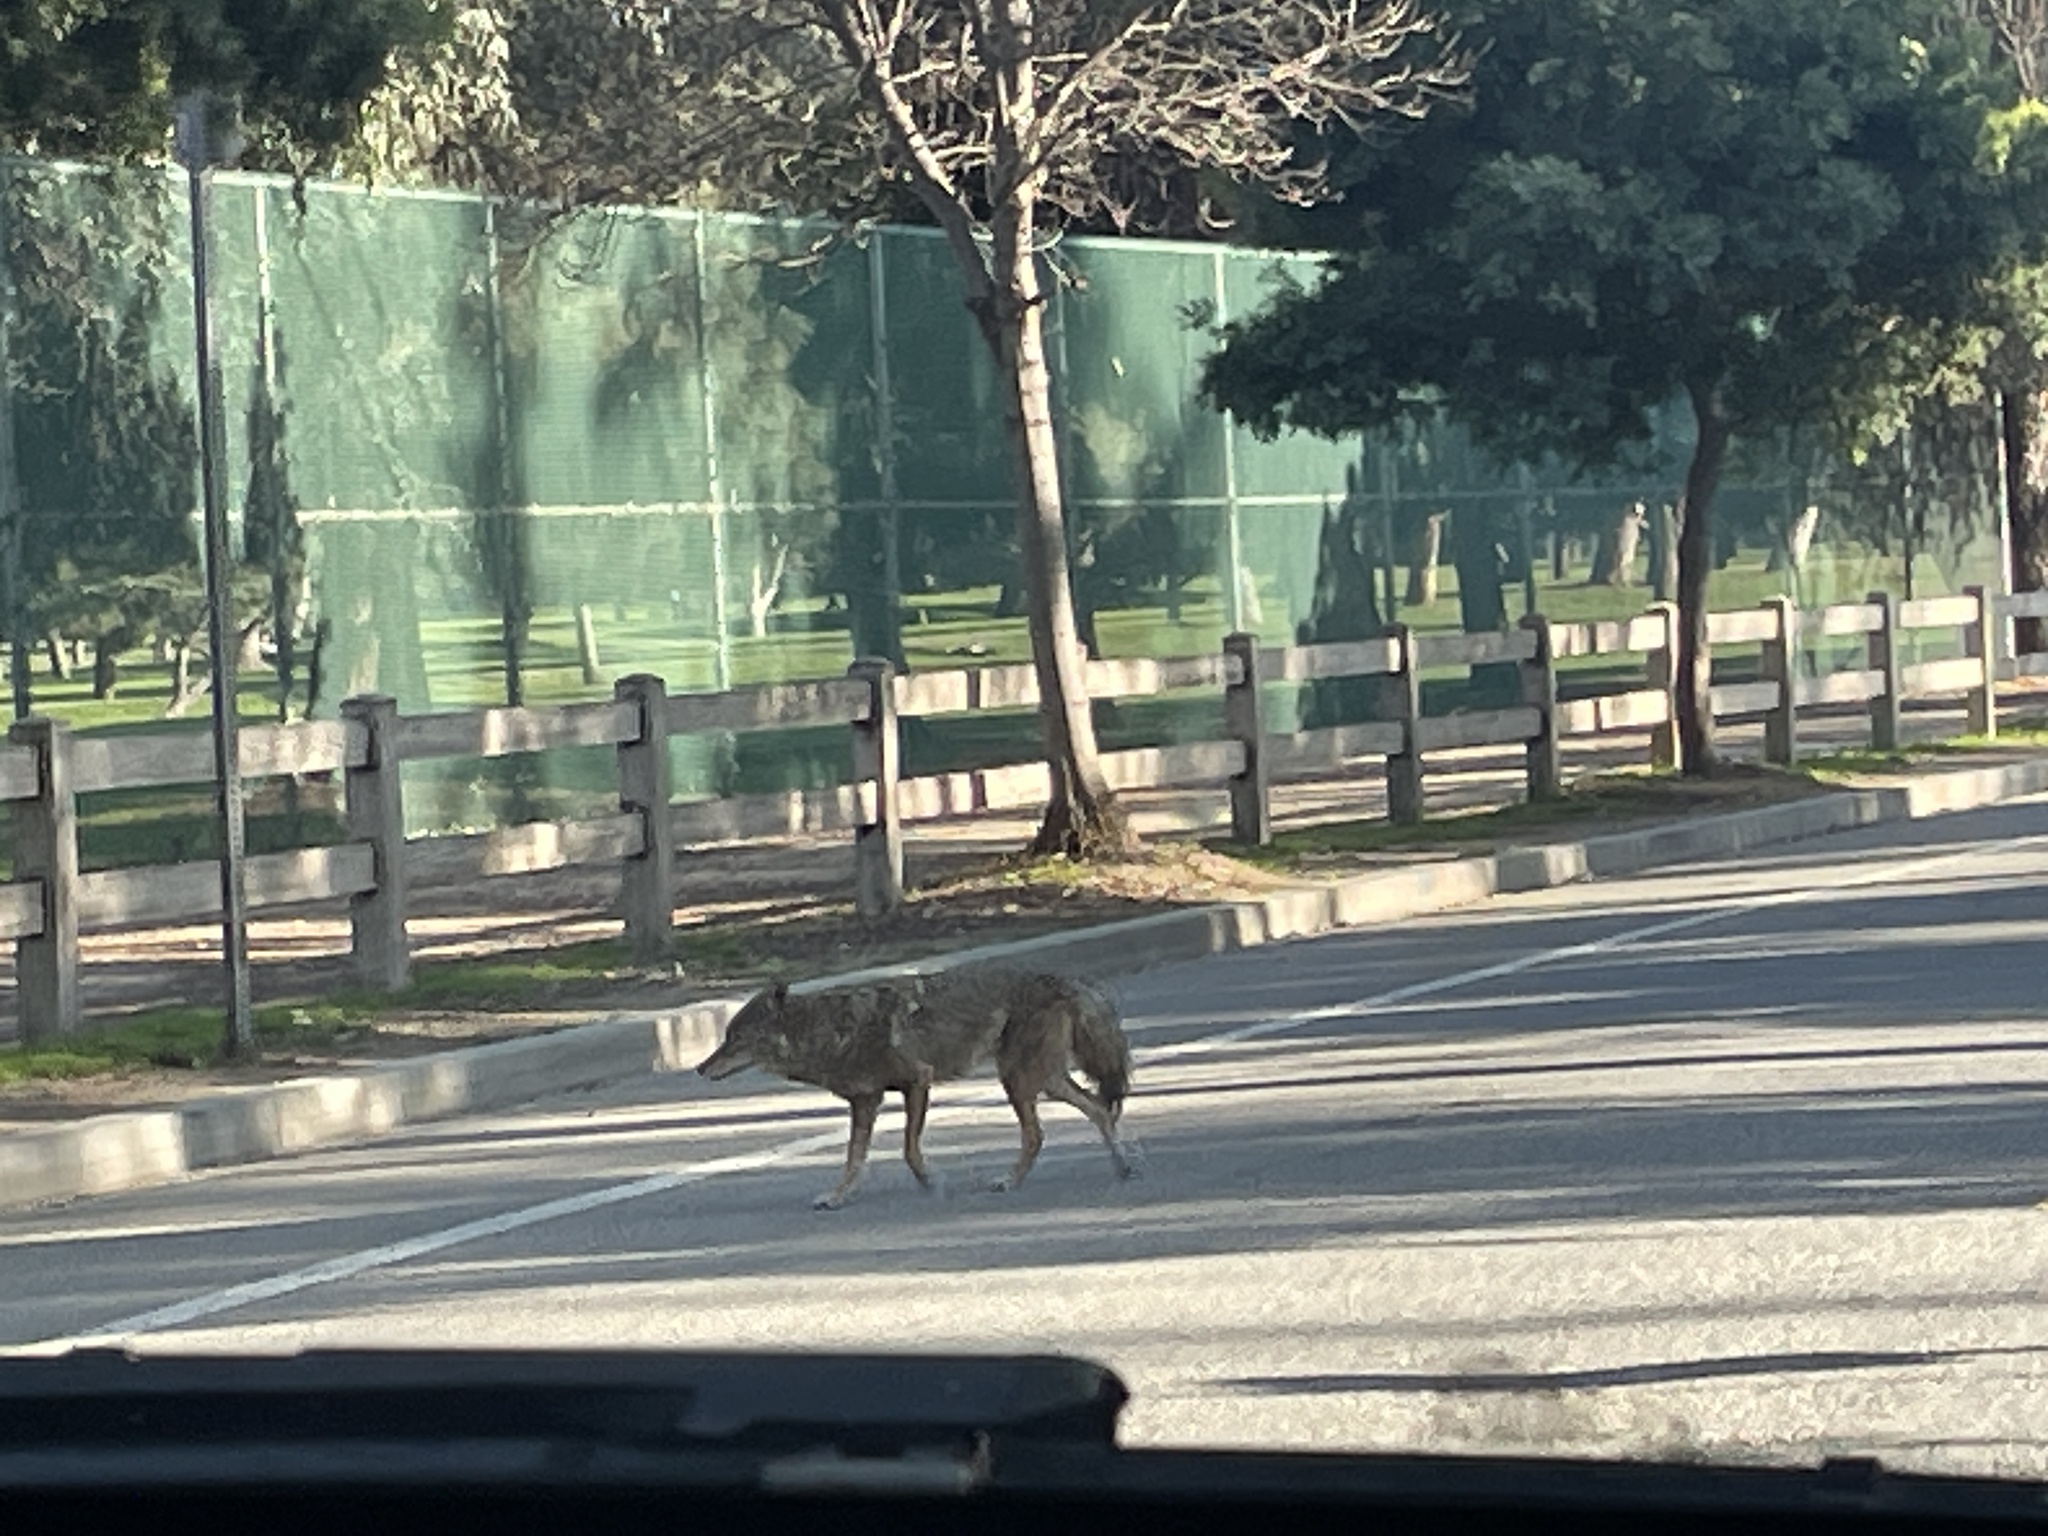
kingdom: Animalia
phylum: Chordata
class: Mammalia
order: Carnivora
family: Canidae
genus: Canis
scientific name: Canis latrans
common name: Coyote
